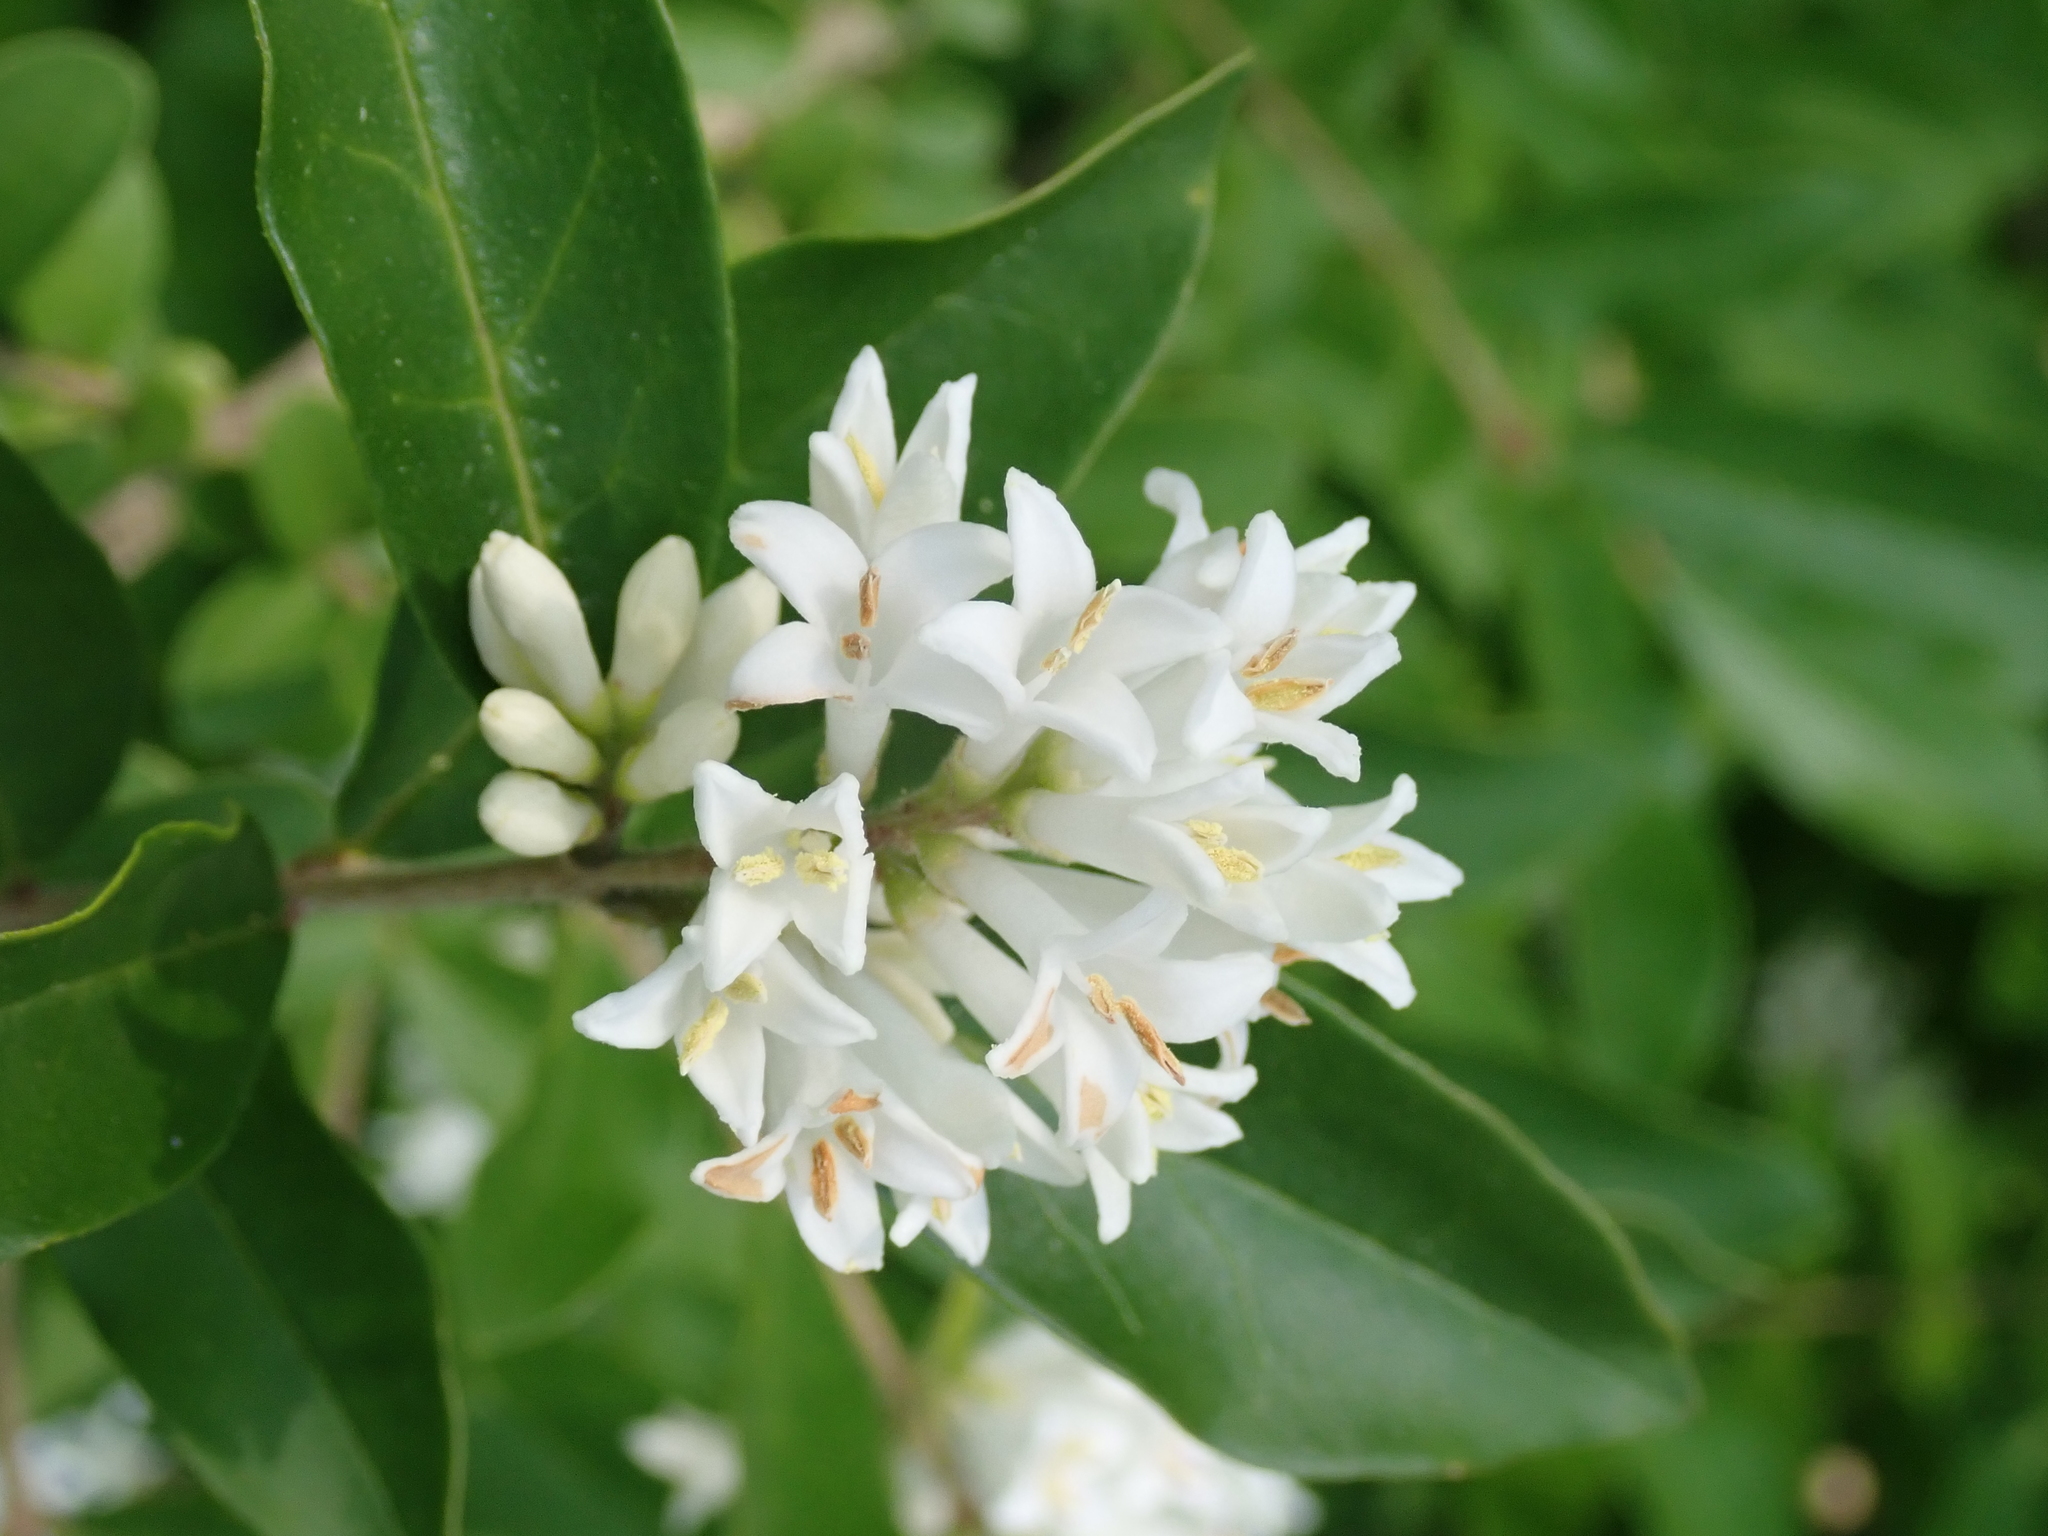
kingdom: Plantae
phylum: Tracheophyta
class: Magnoliopsida
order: Lamiales
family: Oleaceae
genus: Ligustrum
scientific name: Ligustrum obtusifolium
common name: Border privet
